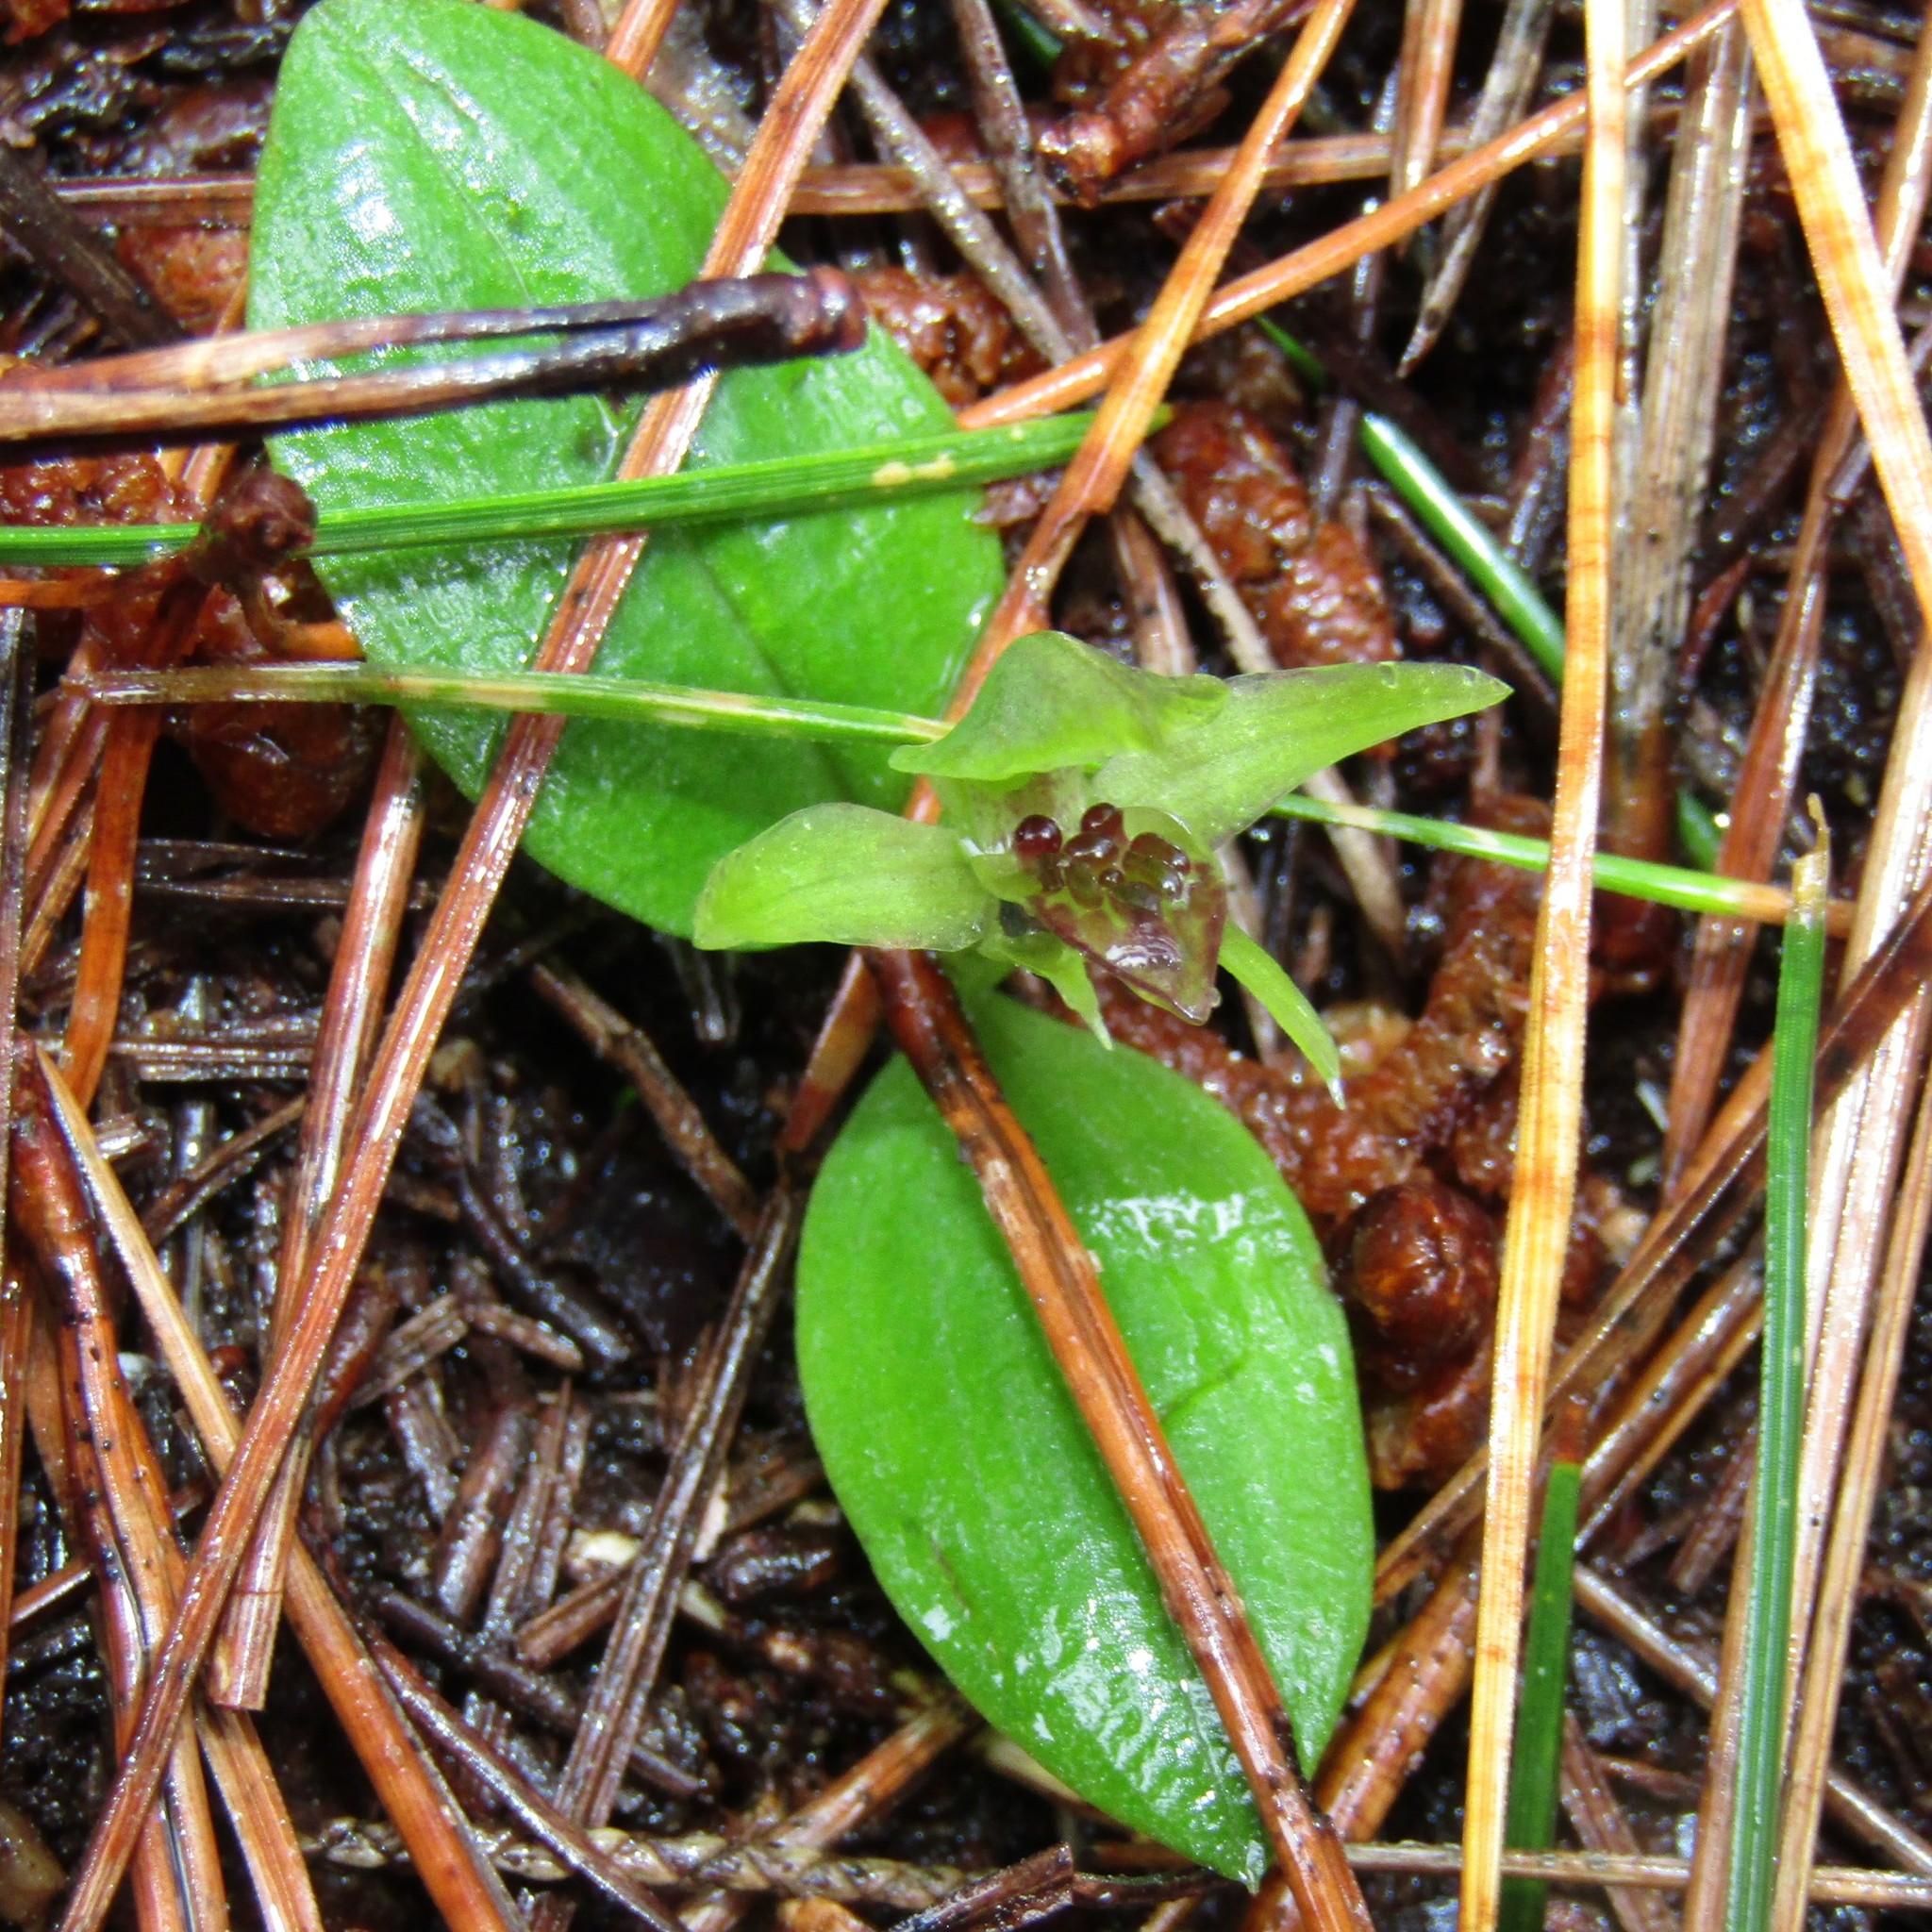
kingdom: Plantae
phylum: Tracheophyta
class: Liliopsida
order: Asparagales
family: Orchidaceae
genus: Chiloglottis
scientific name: Chiloglottis cornuta
